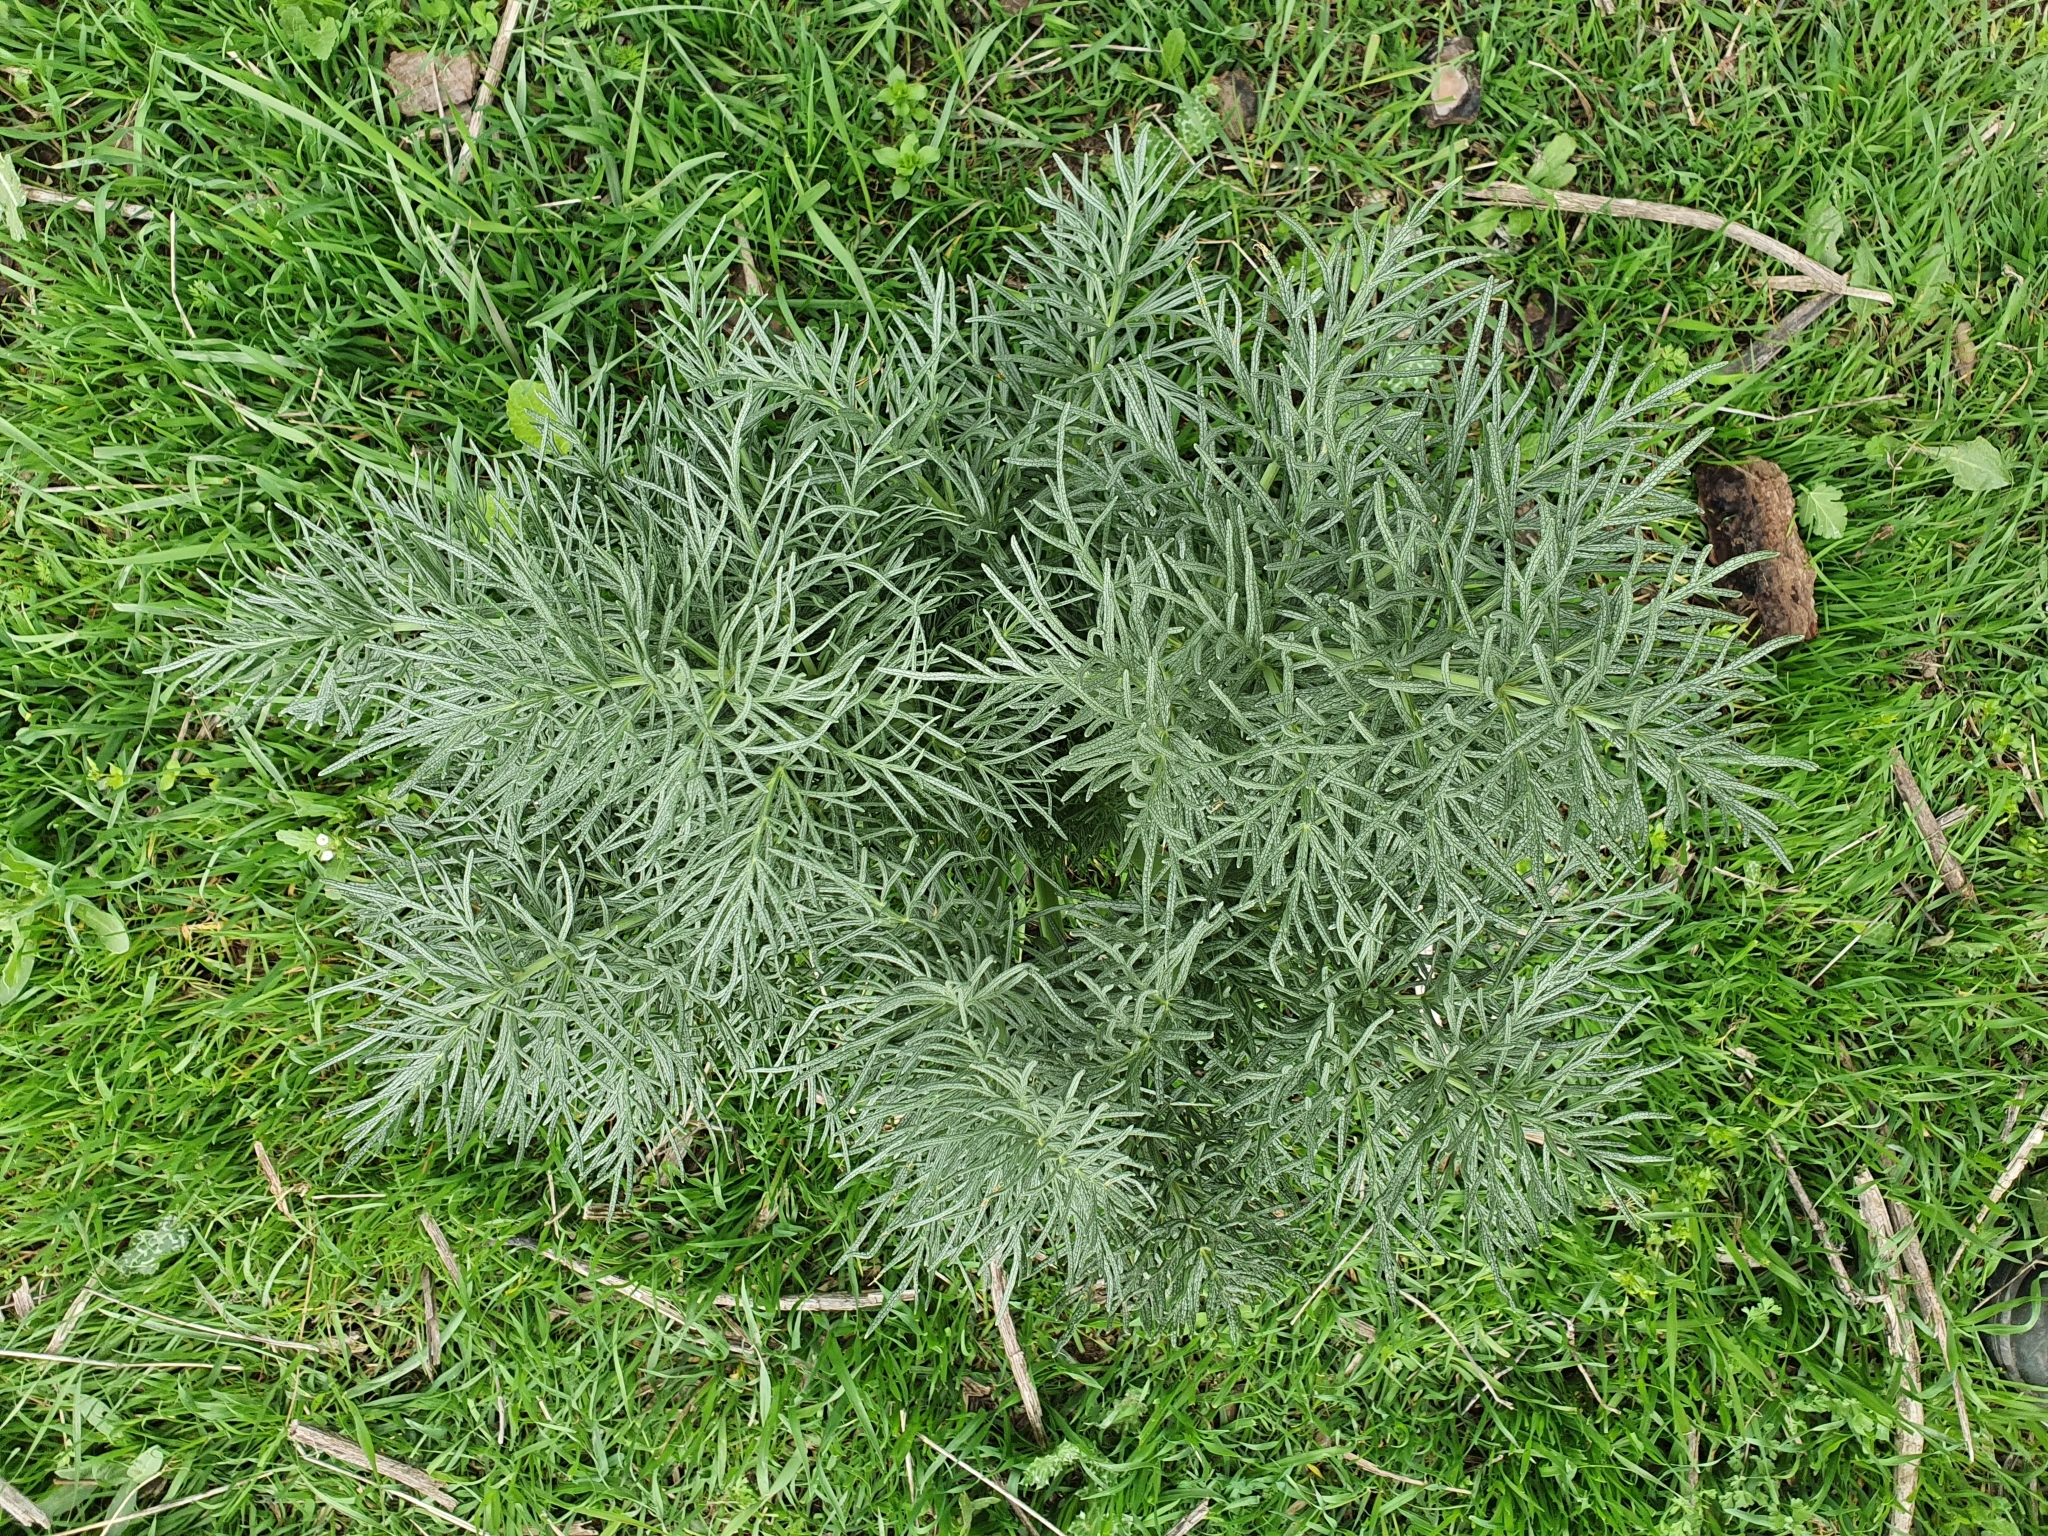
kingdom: Plantae
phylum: Tracheophyta
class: Magnoliopsida
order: Apiales
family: Apiaceae
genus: Thapsia
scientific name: Thapsia garganica
